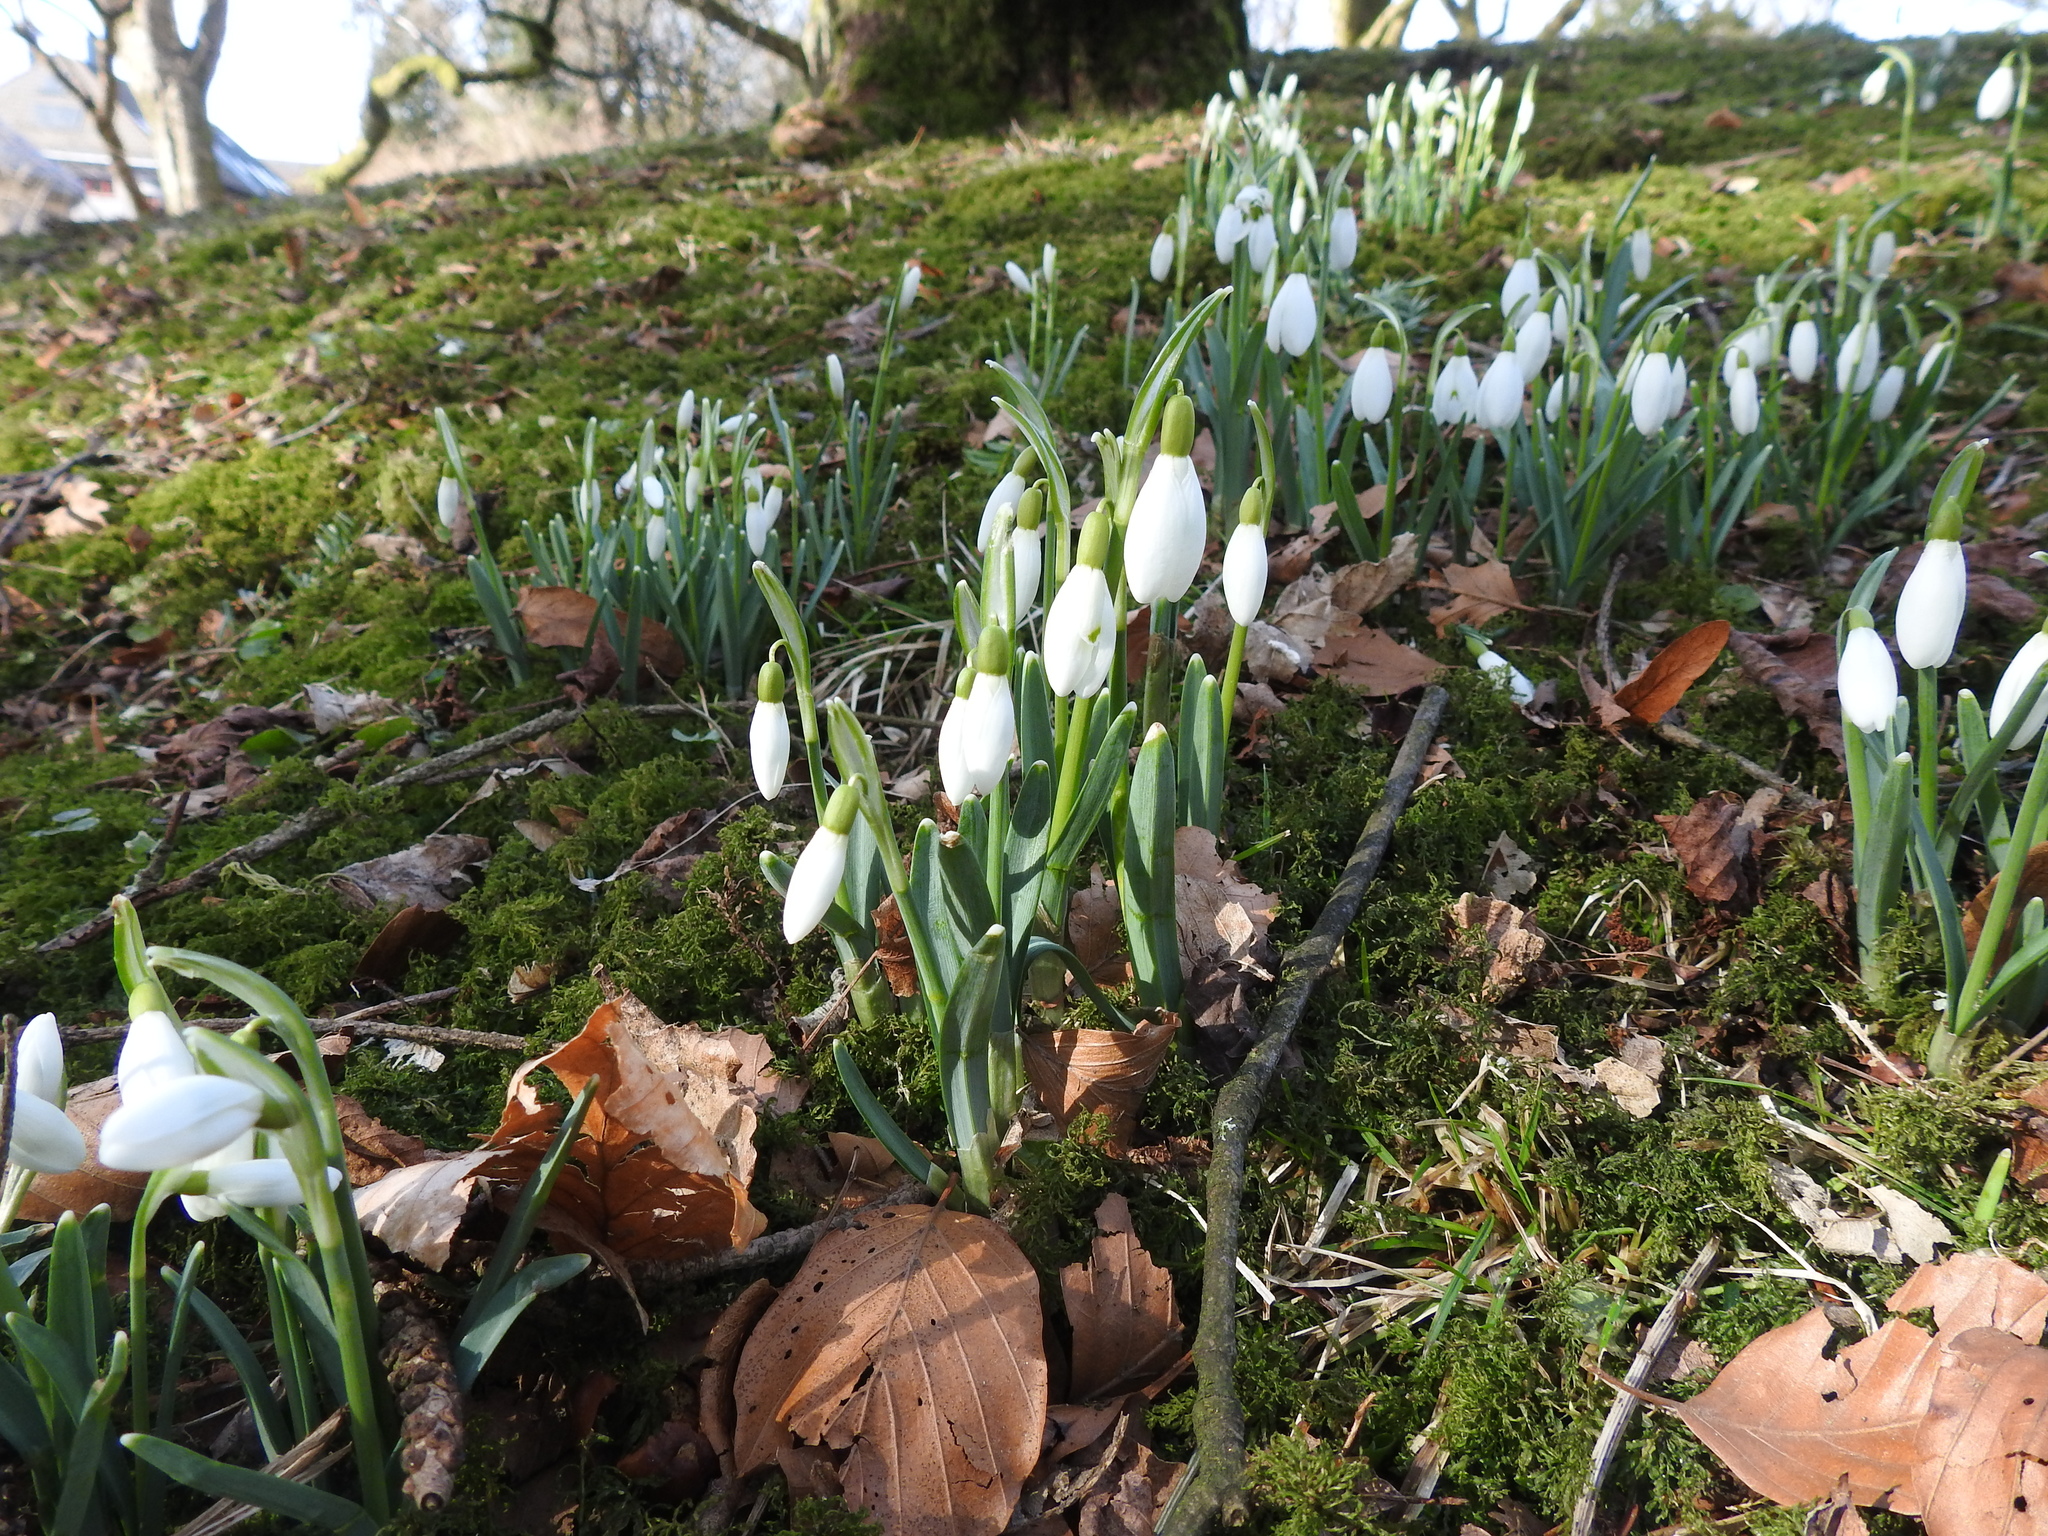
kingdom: Plantae
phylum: Tracheophyta
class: Liliopsida
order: Asparagales
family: Amaryllidaceae
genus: Galanthus
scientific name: Galanthus nivalis
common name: Snowdrop
